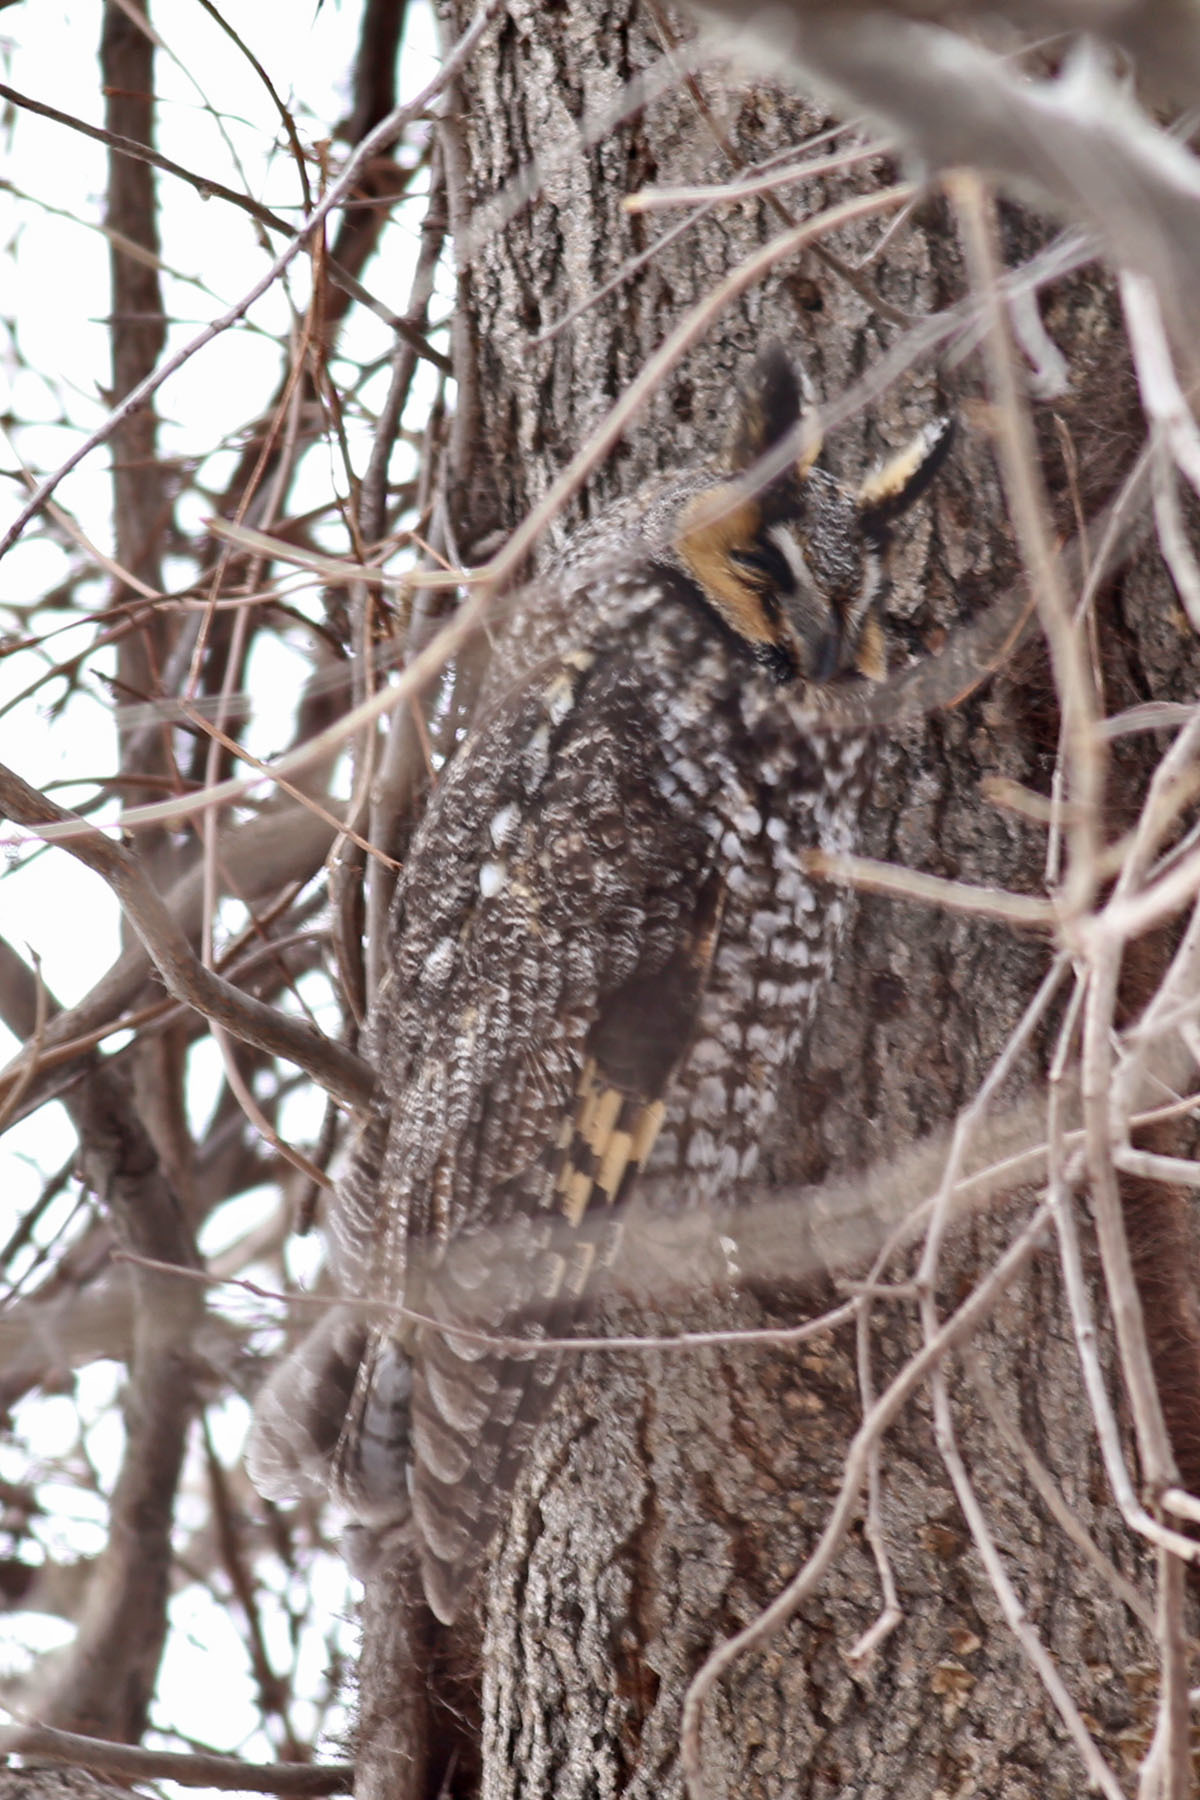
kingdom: Animalia
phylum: Chordata
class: Aves
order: Strigiformes
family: Strigidae
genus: Asio
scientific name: Asio otus
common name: Long-eared owl
